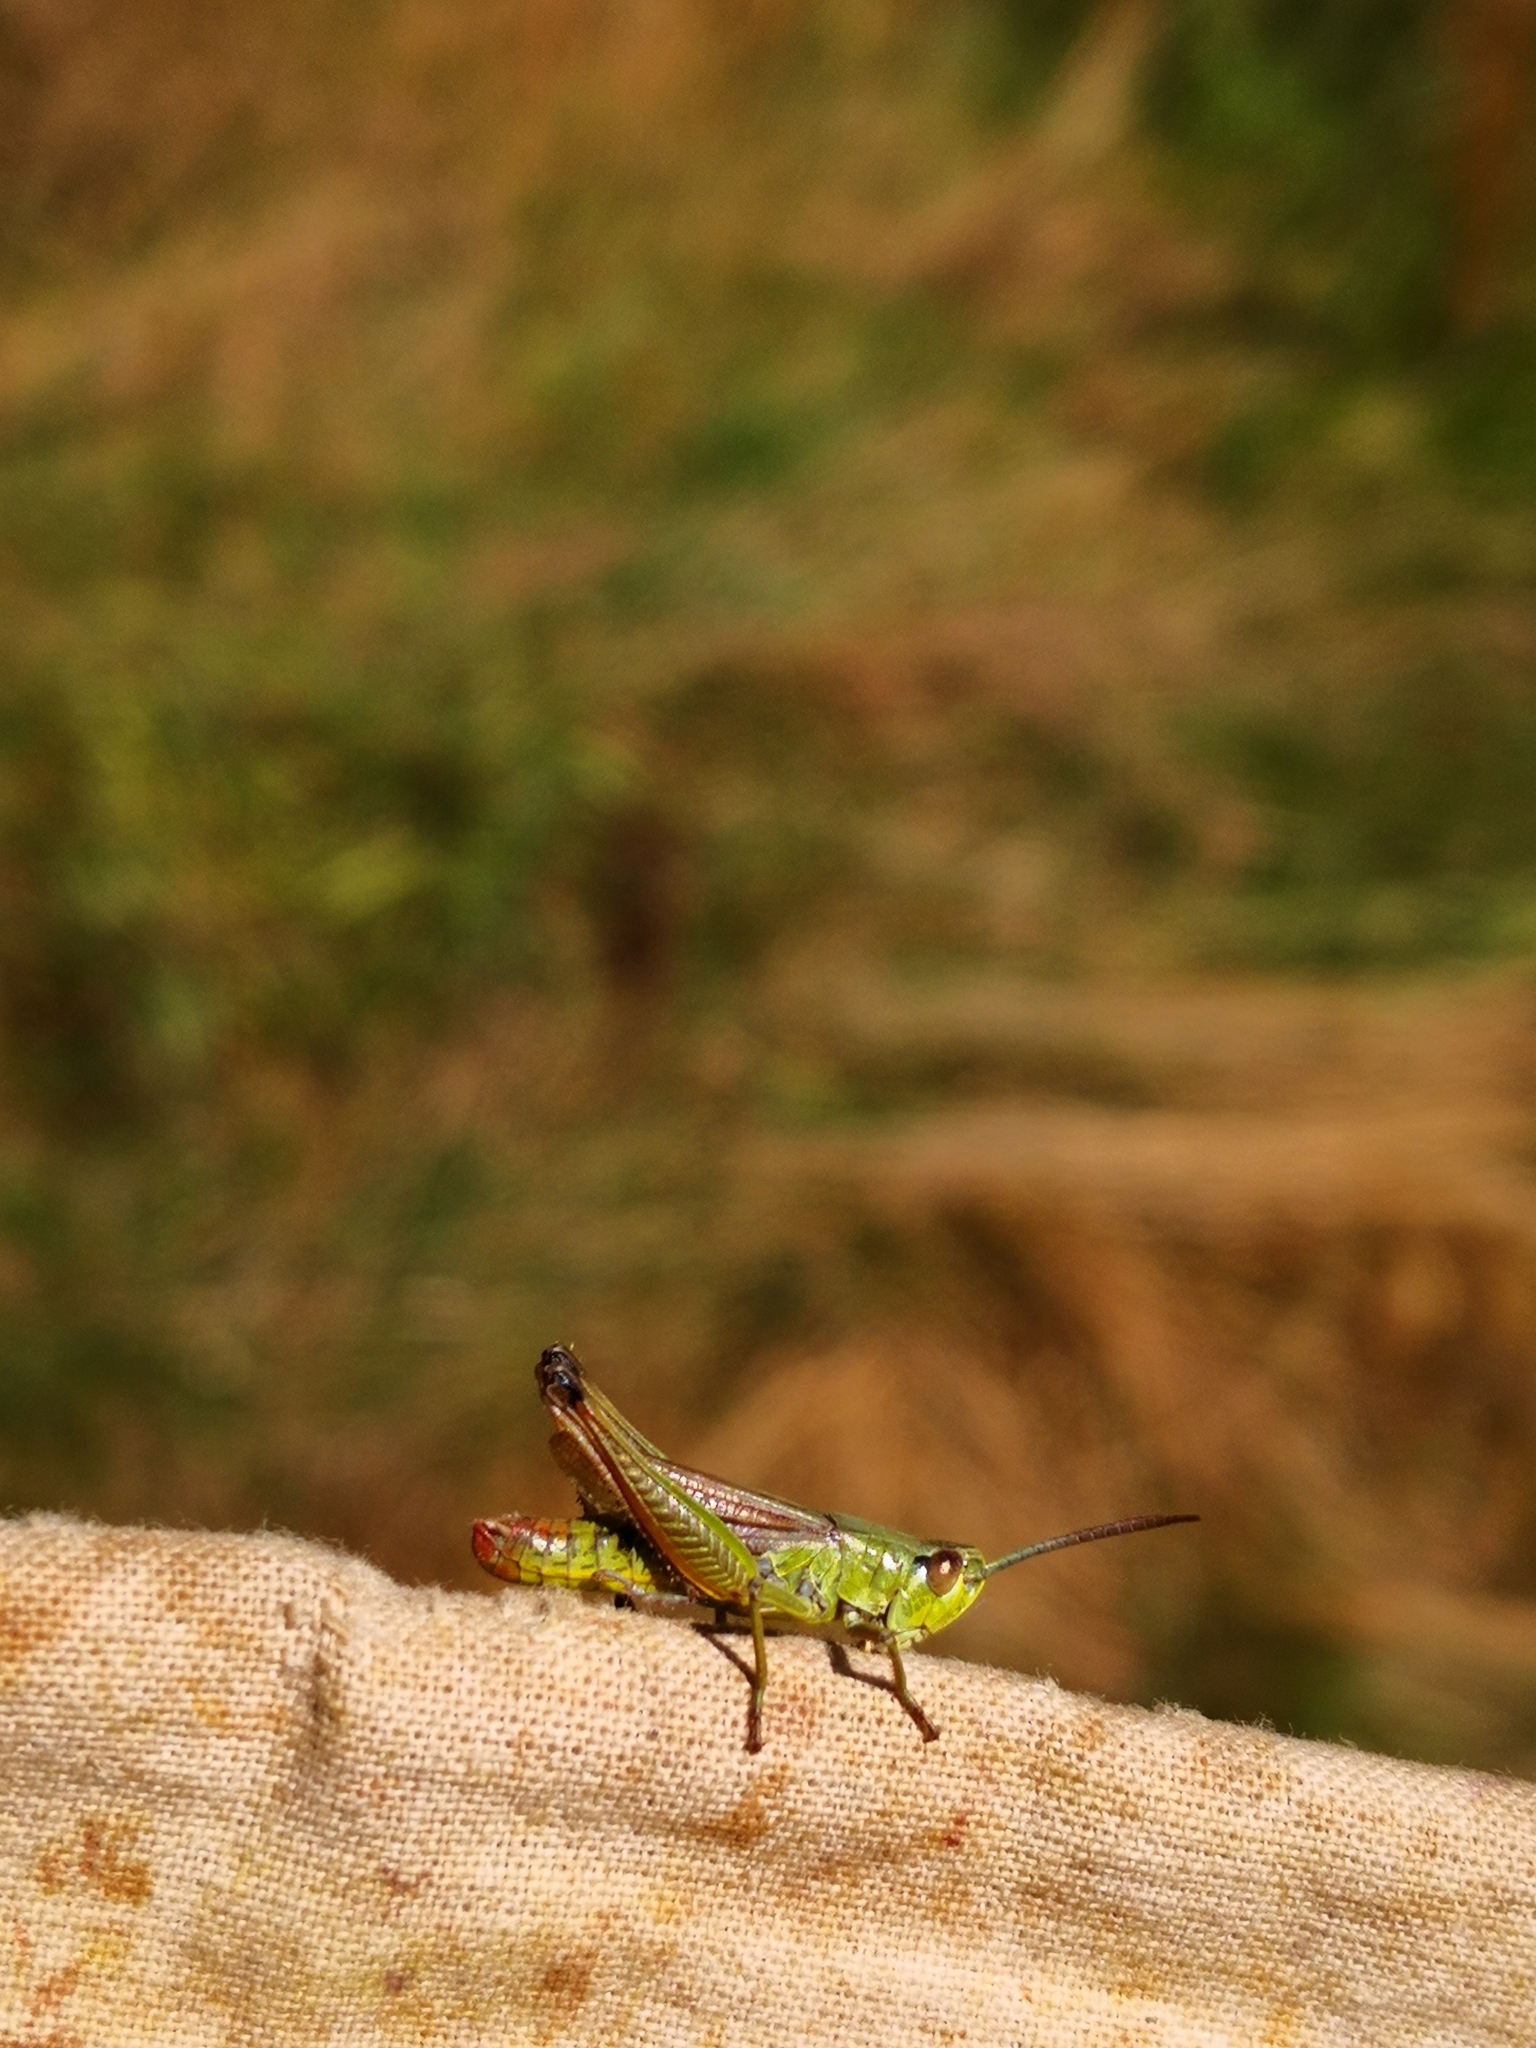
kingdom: Animalia
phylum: Arthropoda
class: Insecta
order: Orthoptera
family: Acrididae
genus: Pseudochorthippus
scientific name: Pseudochorthippus parallelus
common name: Meadow grasshopper
